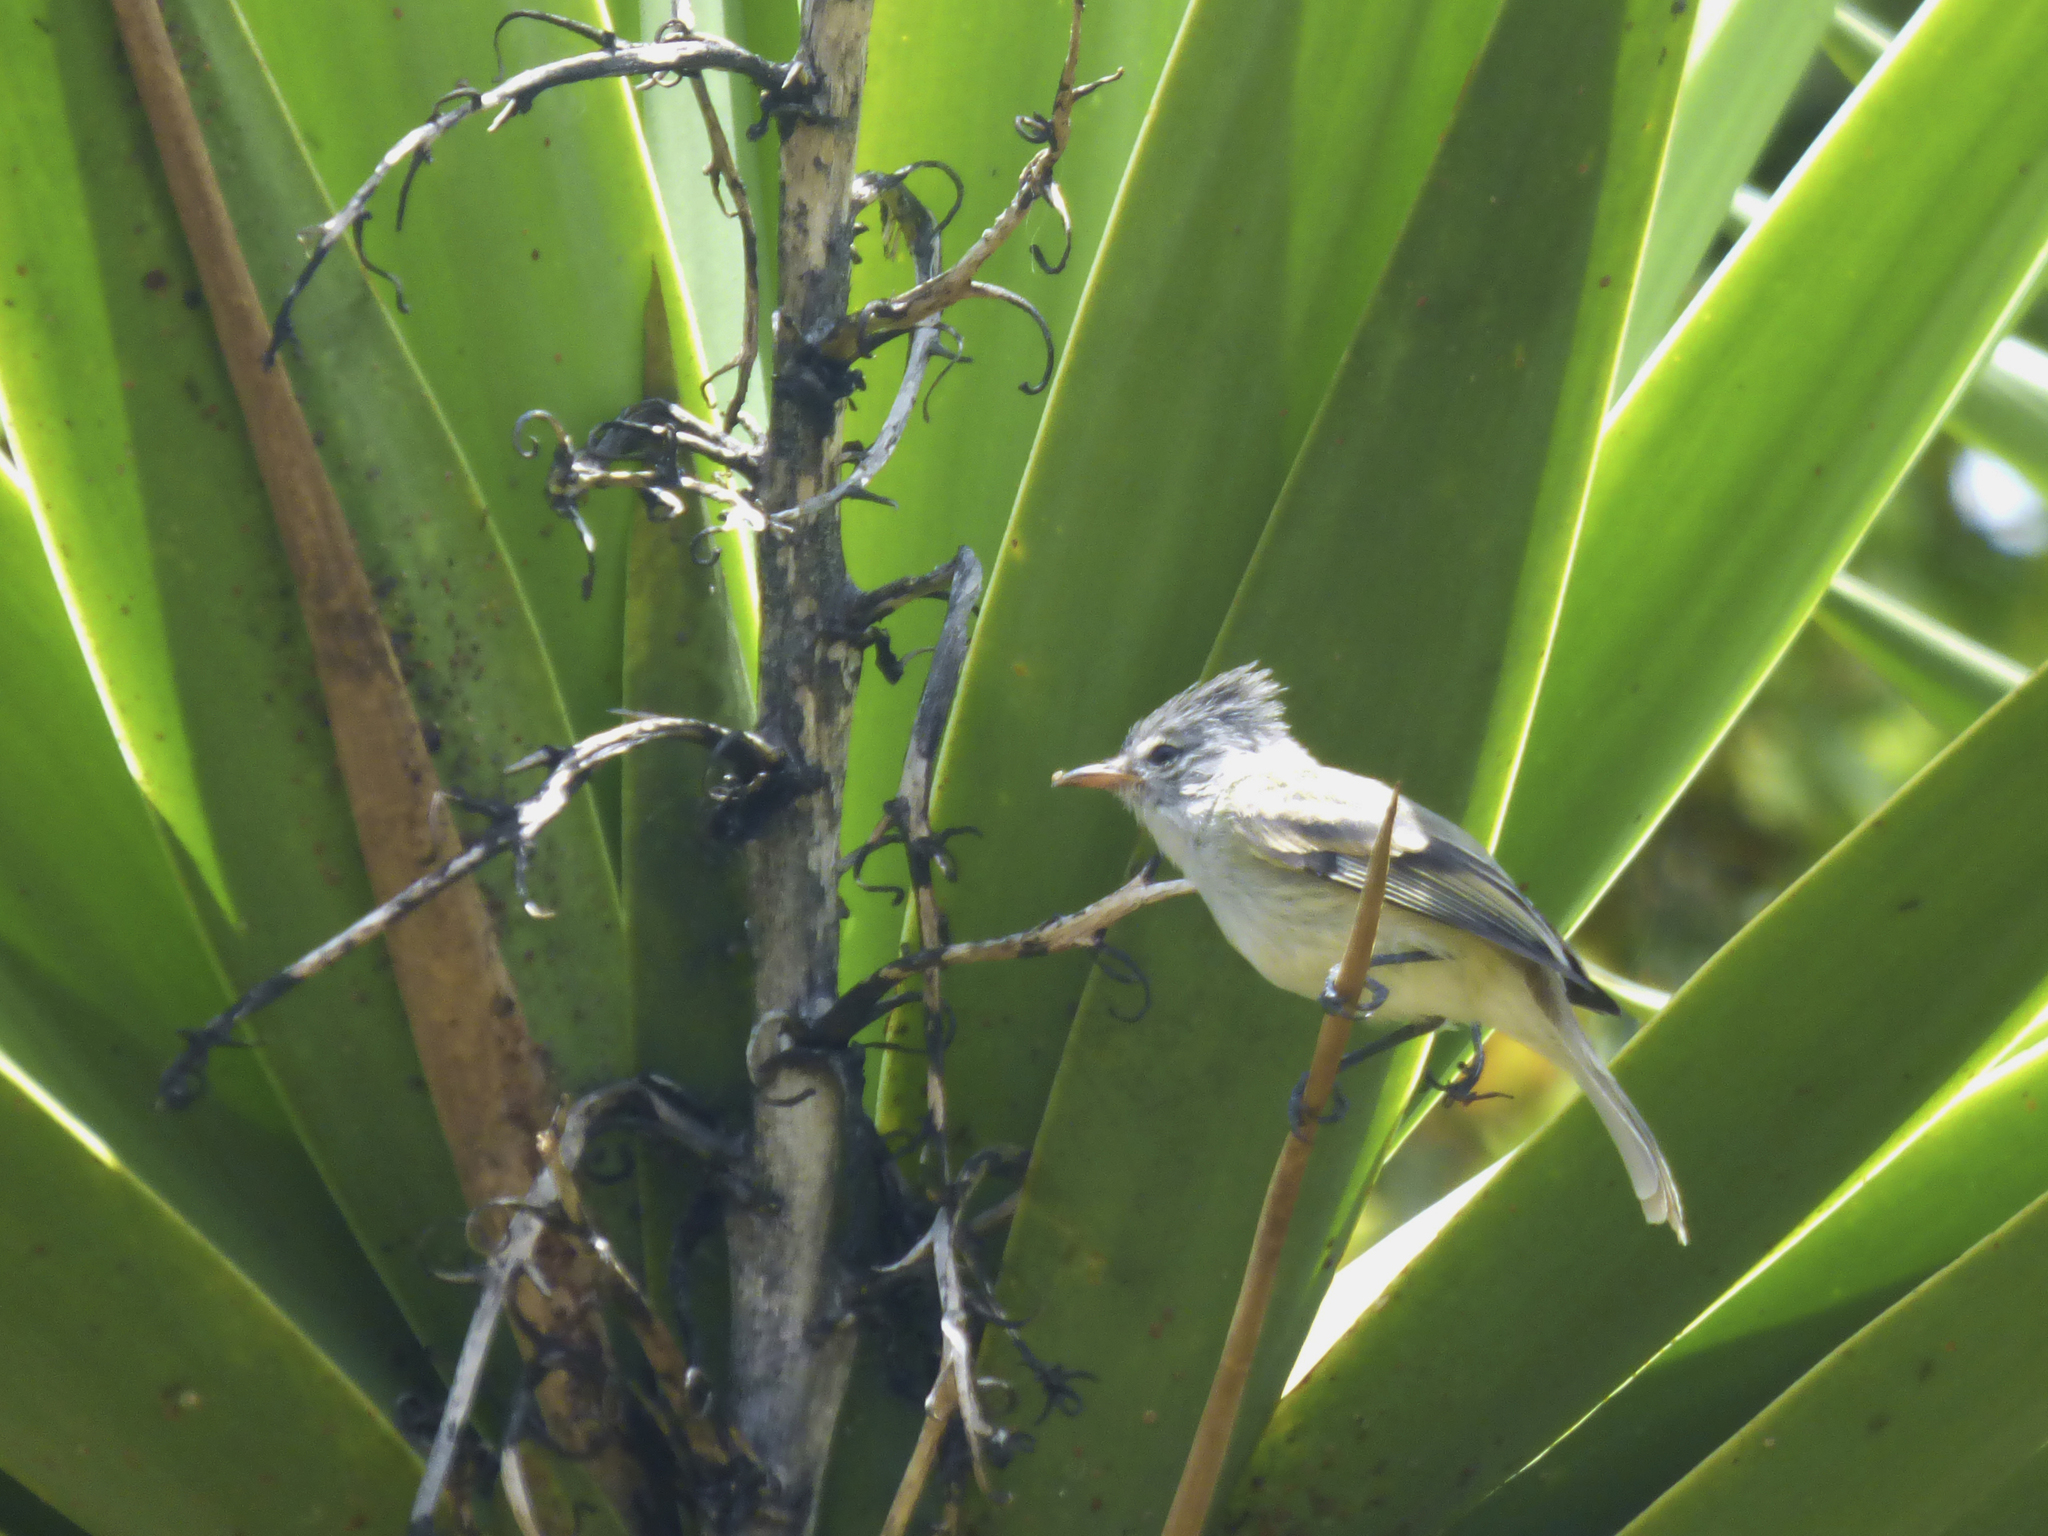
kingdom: Animalia
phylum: Chordata
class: Aves
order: Passeriformes
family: Tyrannidae
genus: Camptostoma
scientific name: Camptostoma obsoletum
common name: Southern beardless-tyrannulet
